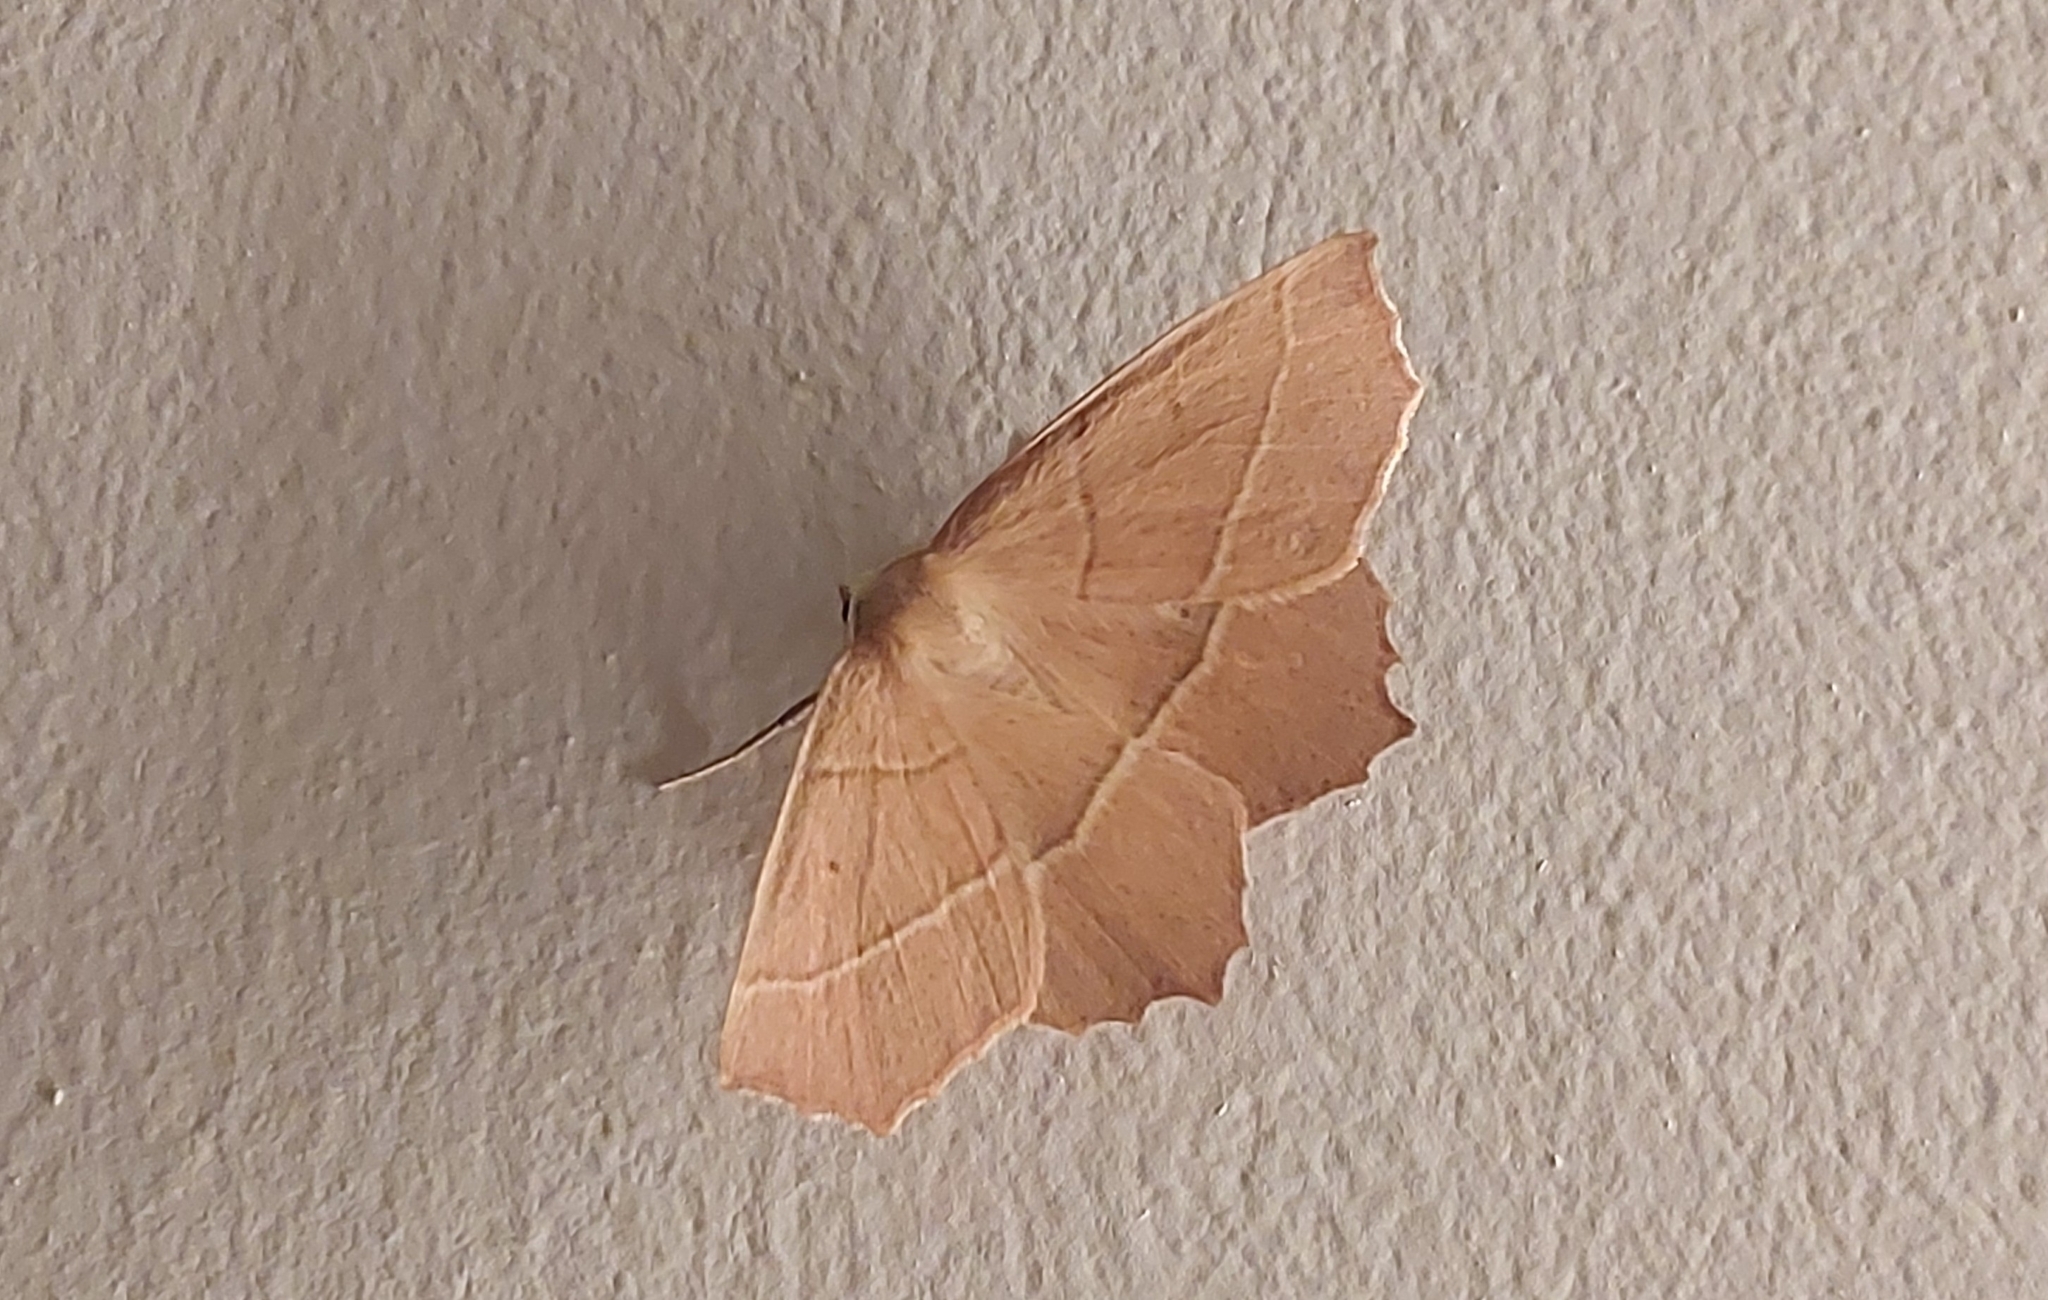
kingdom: Animalia
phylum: Arthropoda
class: Insecta
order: Lepidoptera
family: Geometridae
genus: Gerinia
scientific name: Gerinia honoraria
